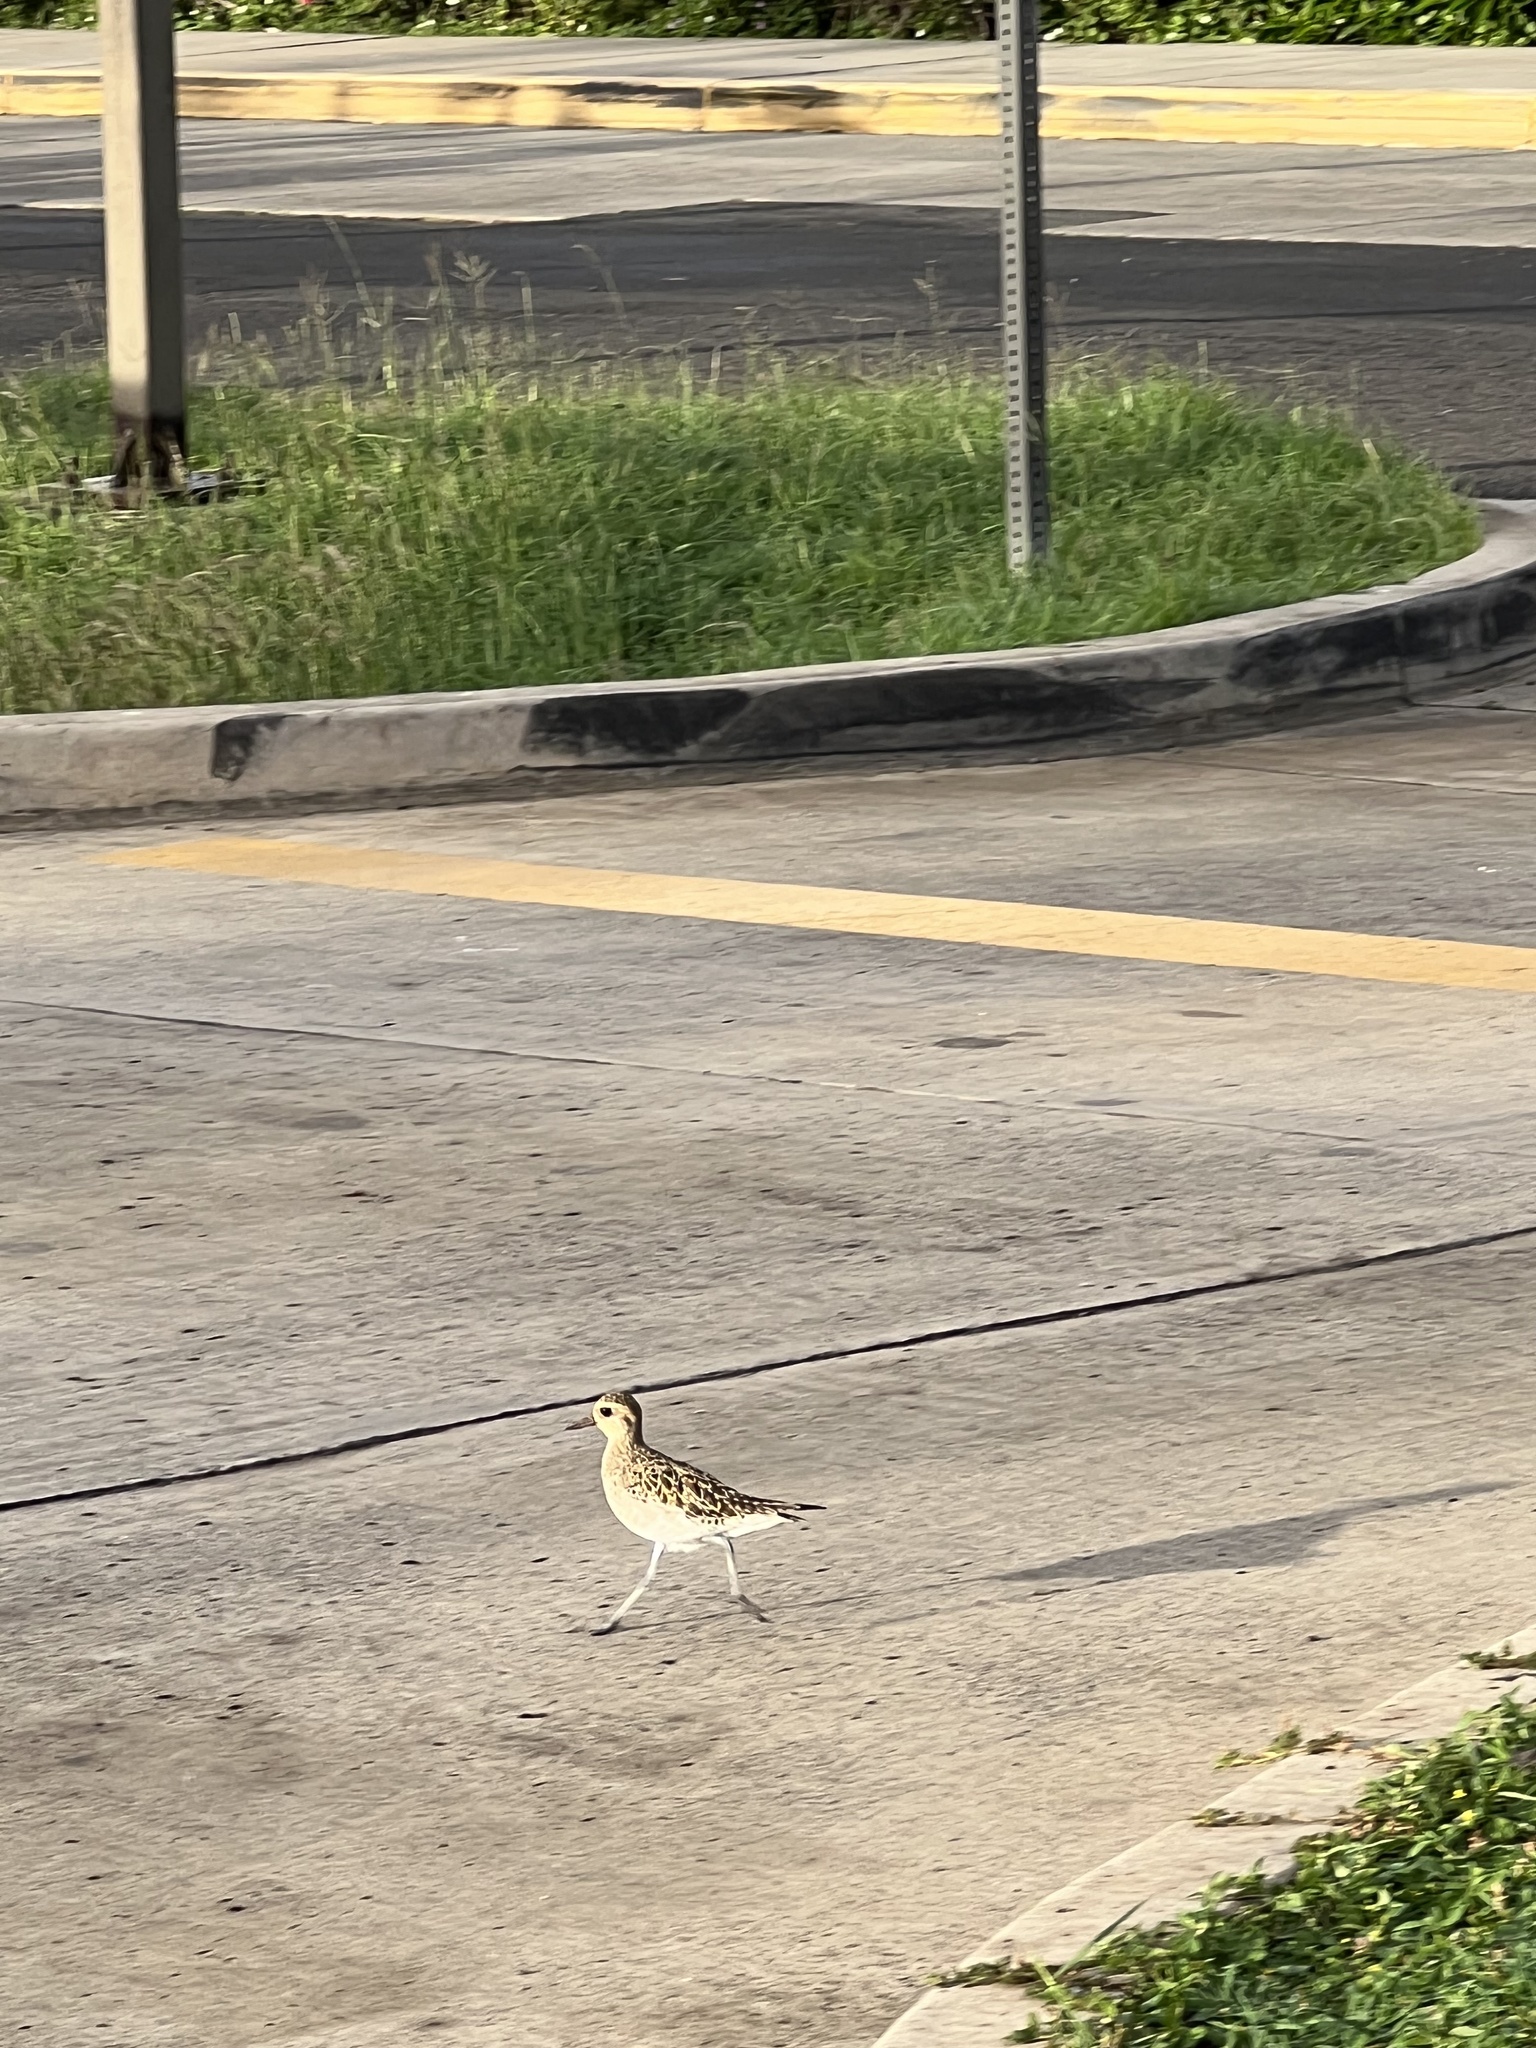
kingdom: Animalia
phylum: Chordata
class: Aves
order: Charadriiformes
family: Charadriidae
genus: Pluvialis
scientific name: Pluvialis fulva
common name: Pacific golden plover
